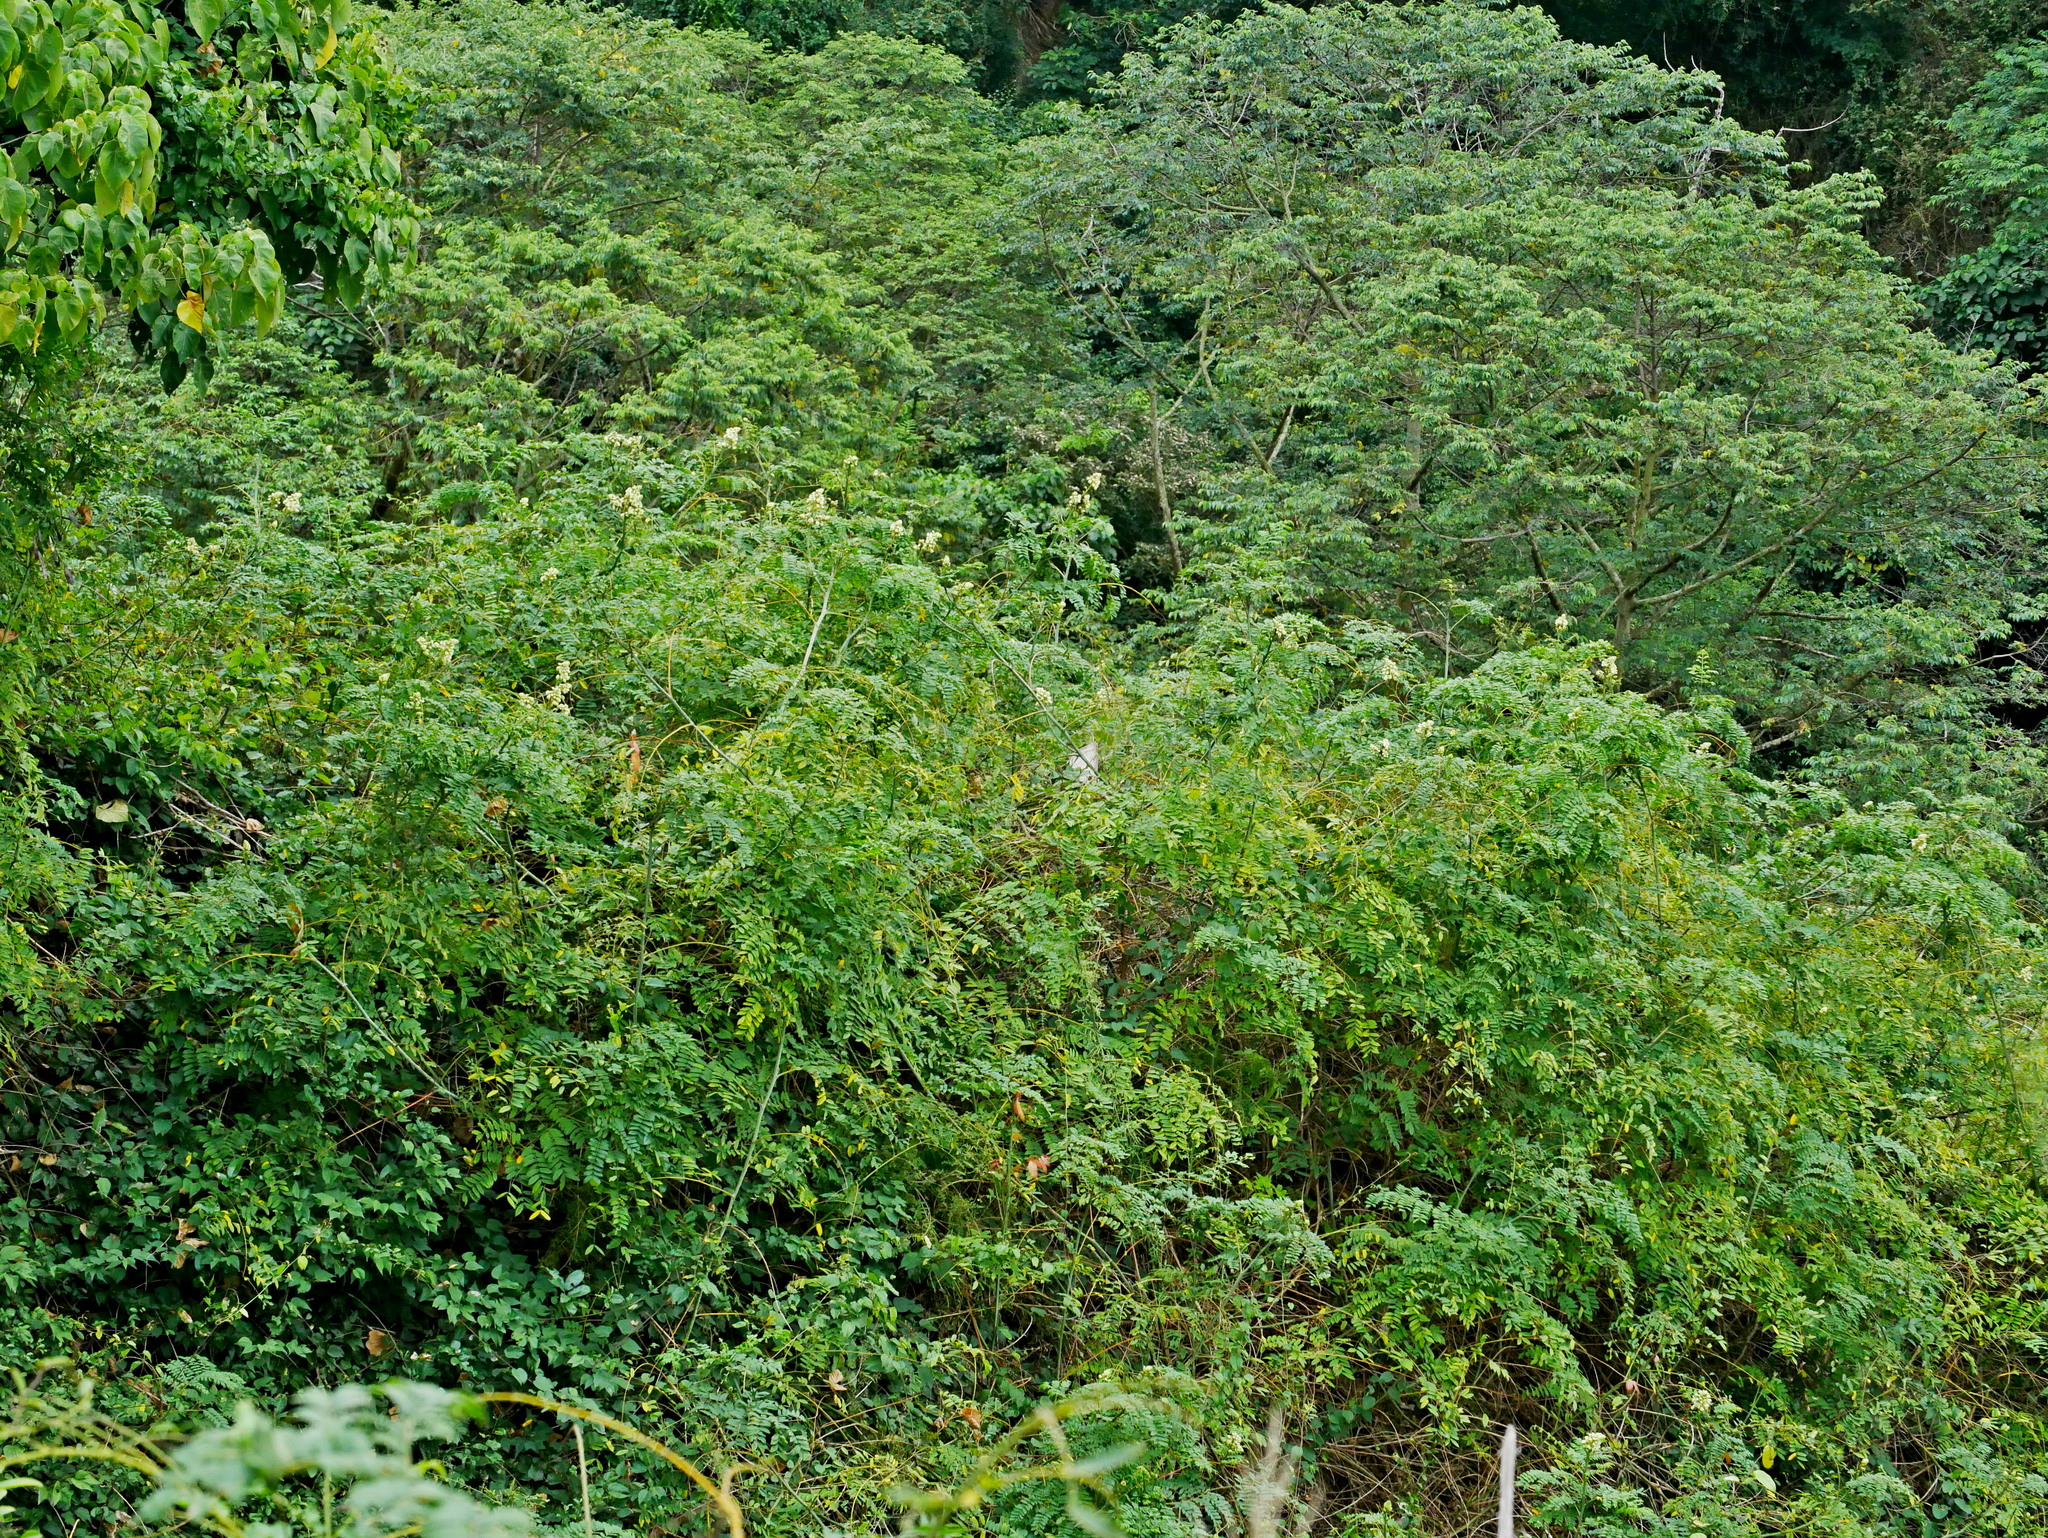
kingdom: Plantae
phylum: Tracheophyta
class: Magnoliopsida
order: Fabales
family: Fabaceae
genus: Guilandina
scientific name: Guilandina minax
